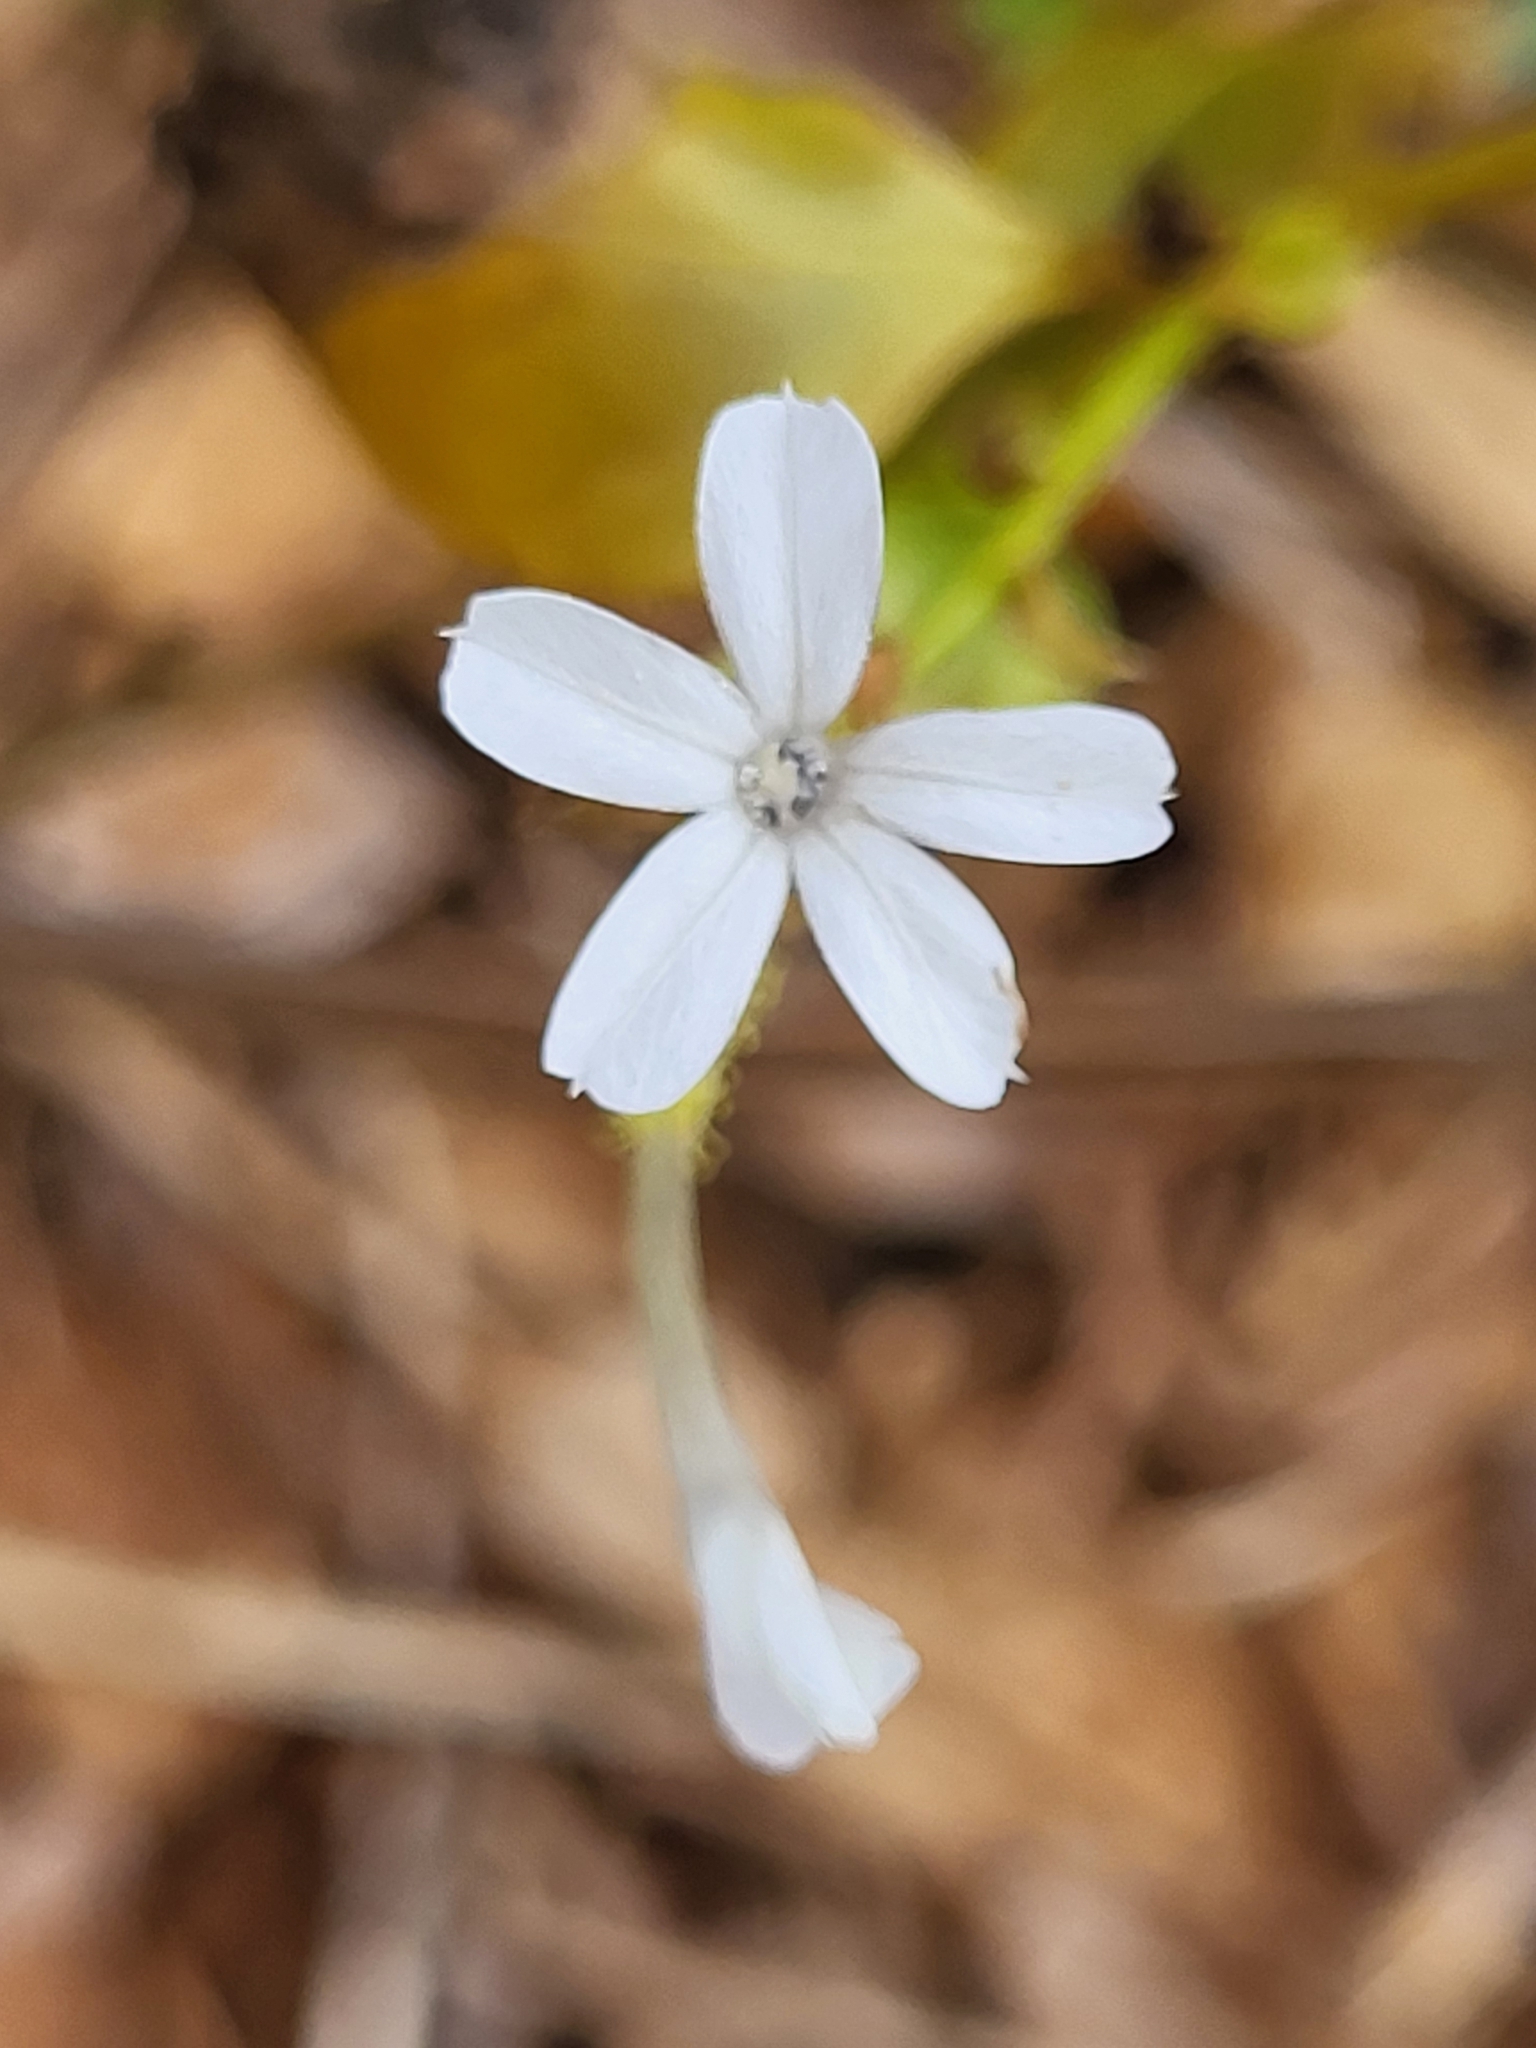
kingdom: Plantae
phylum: Tracheophyta
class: Magnoliopsida
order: Caryophyllales
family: Plumbaginaceae
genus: Plumbago
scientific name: Plumbago zeylanica
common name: Doctorbush
